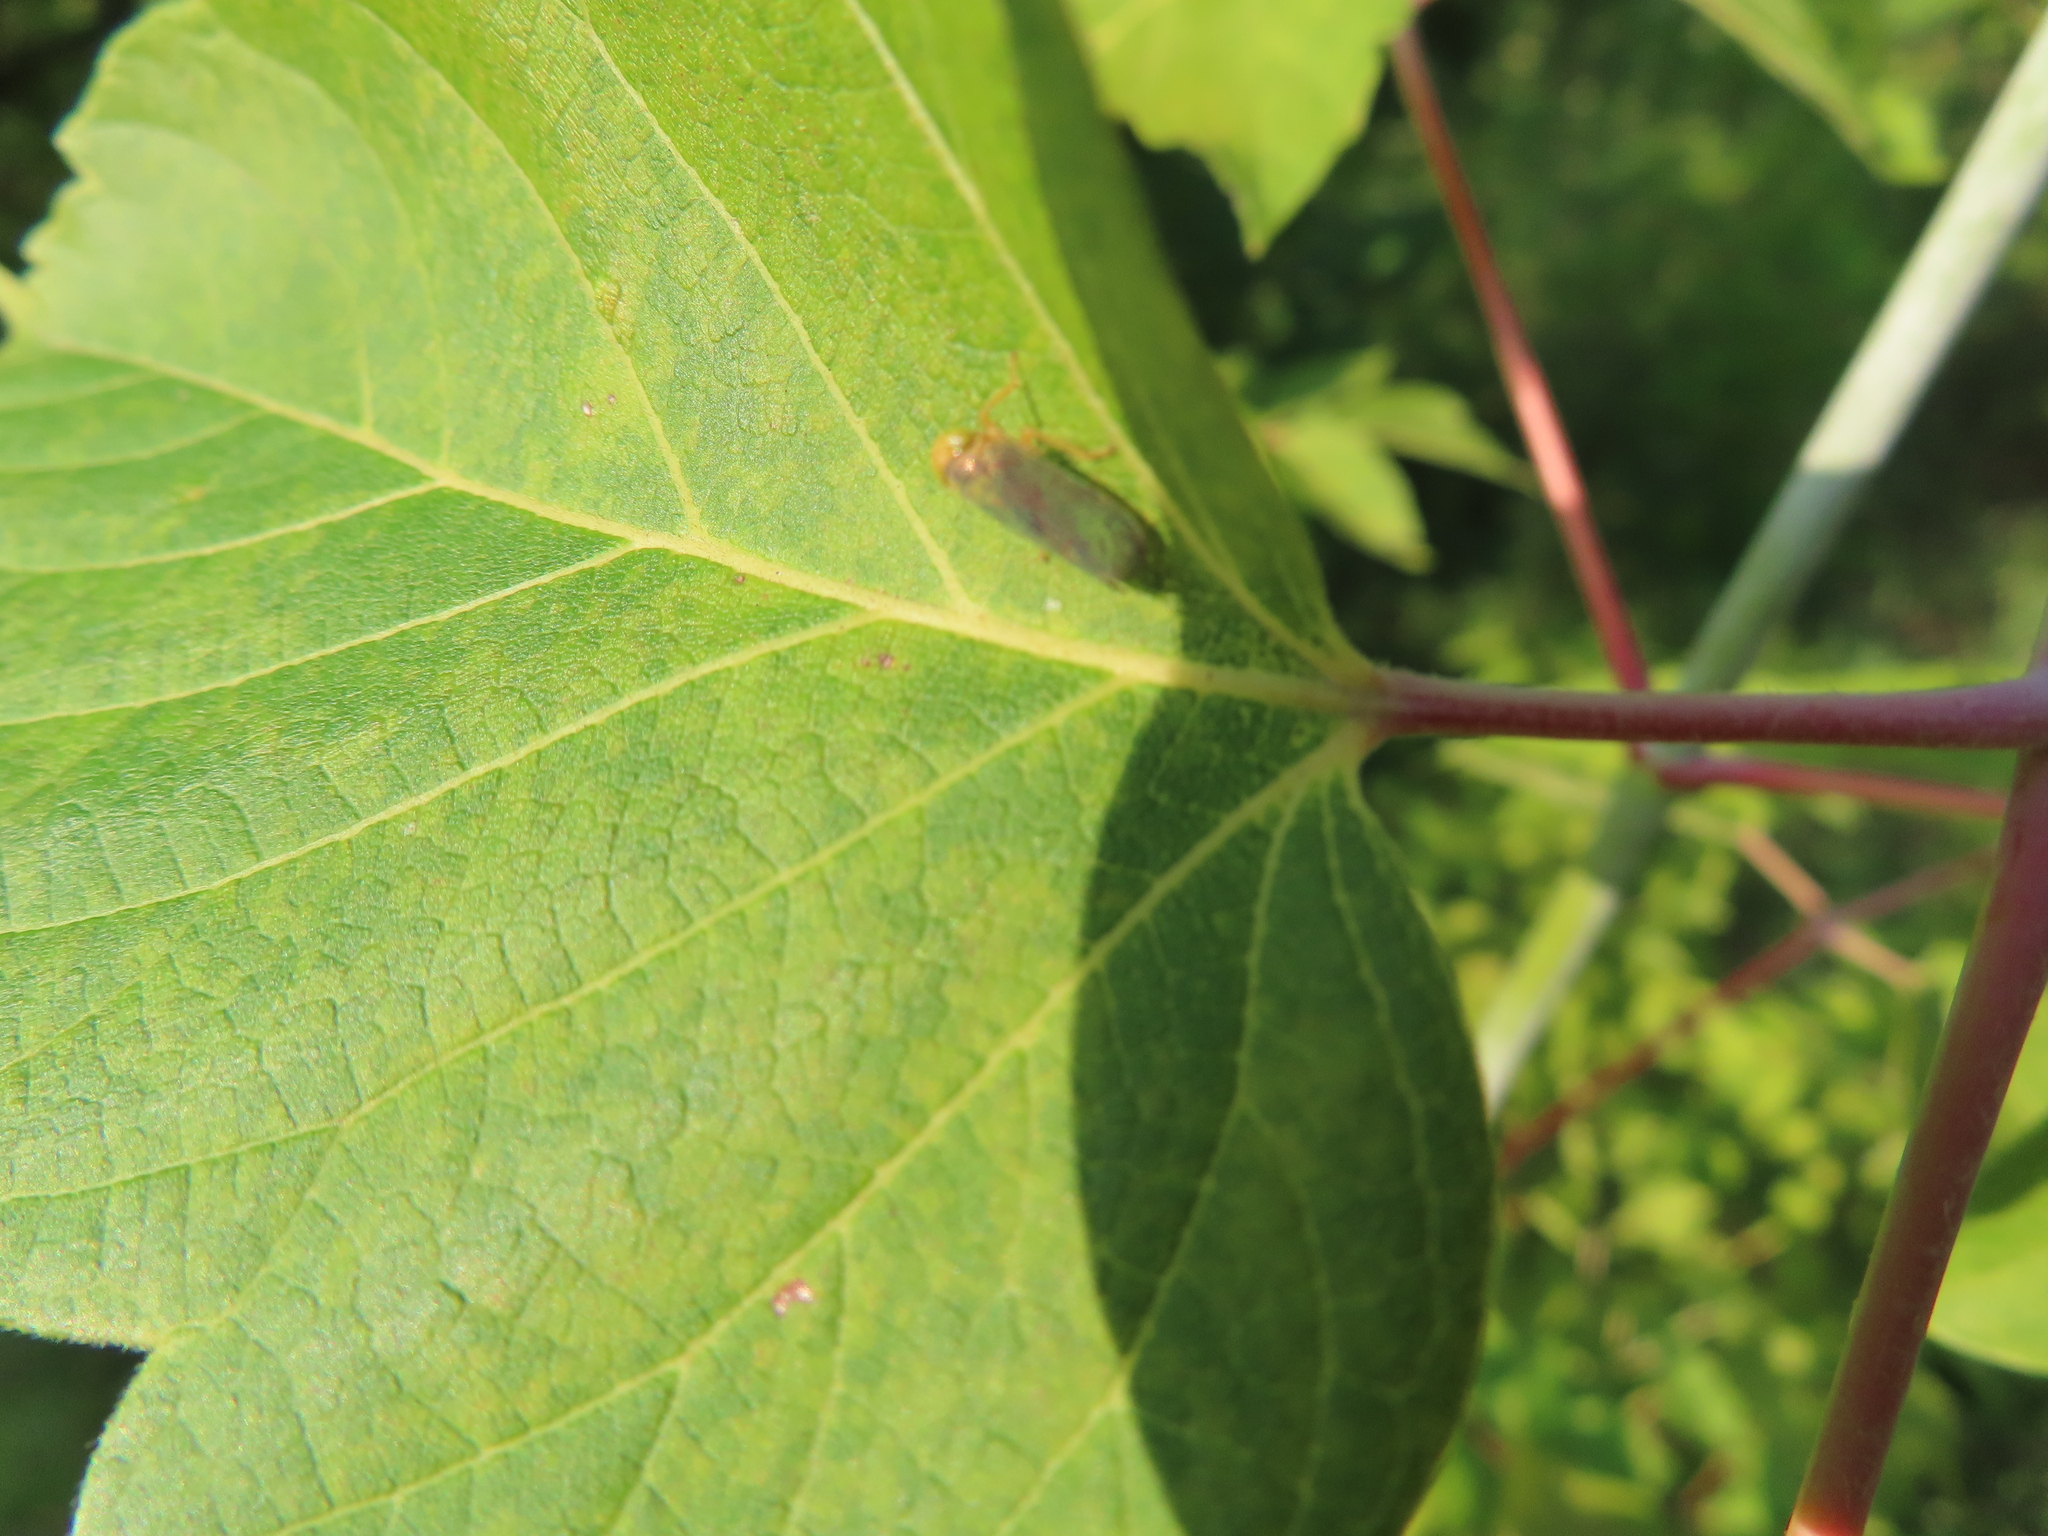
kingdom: Animalia
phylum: Arthropoda
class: Insecta
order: Hemiptera
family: Cicadellidae
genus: Jikradia
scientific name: Jikradia olitoria
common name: Coppery leafhopper
